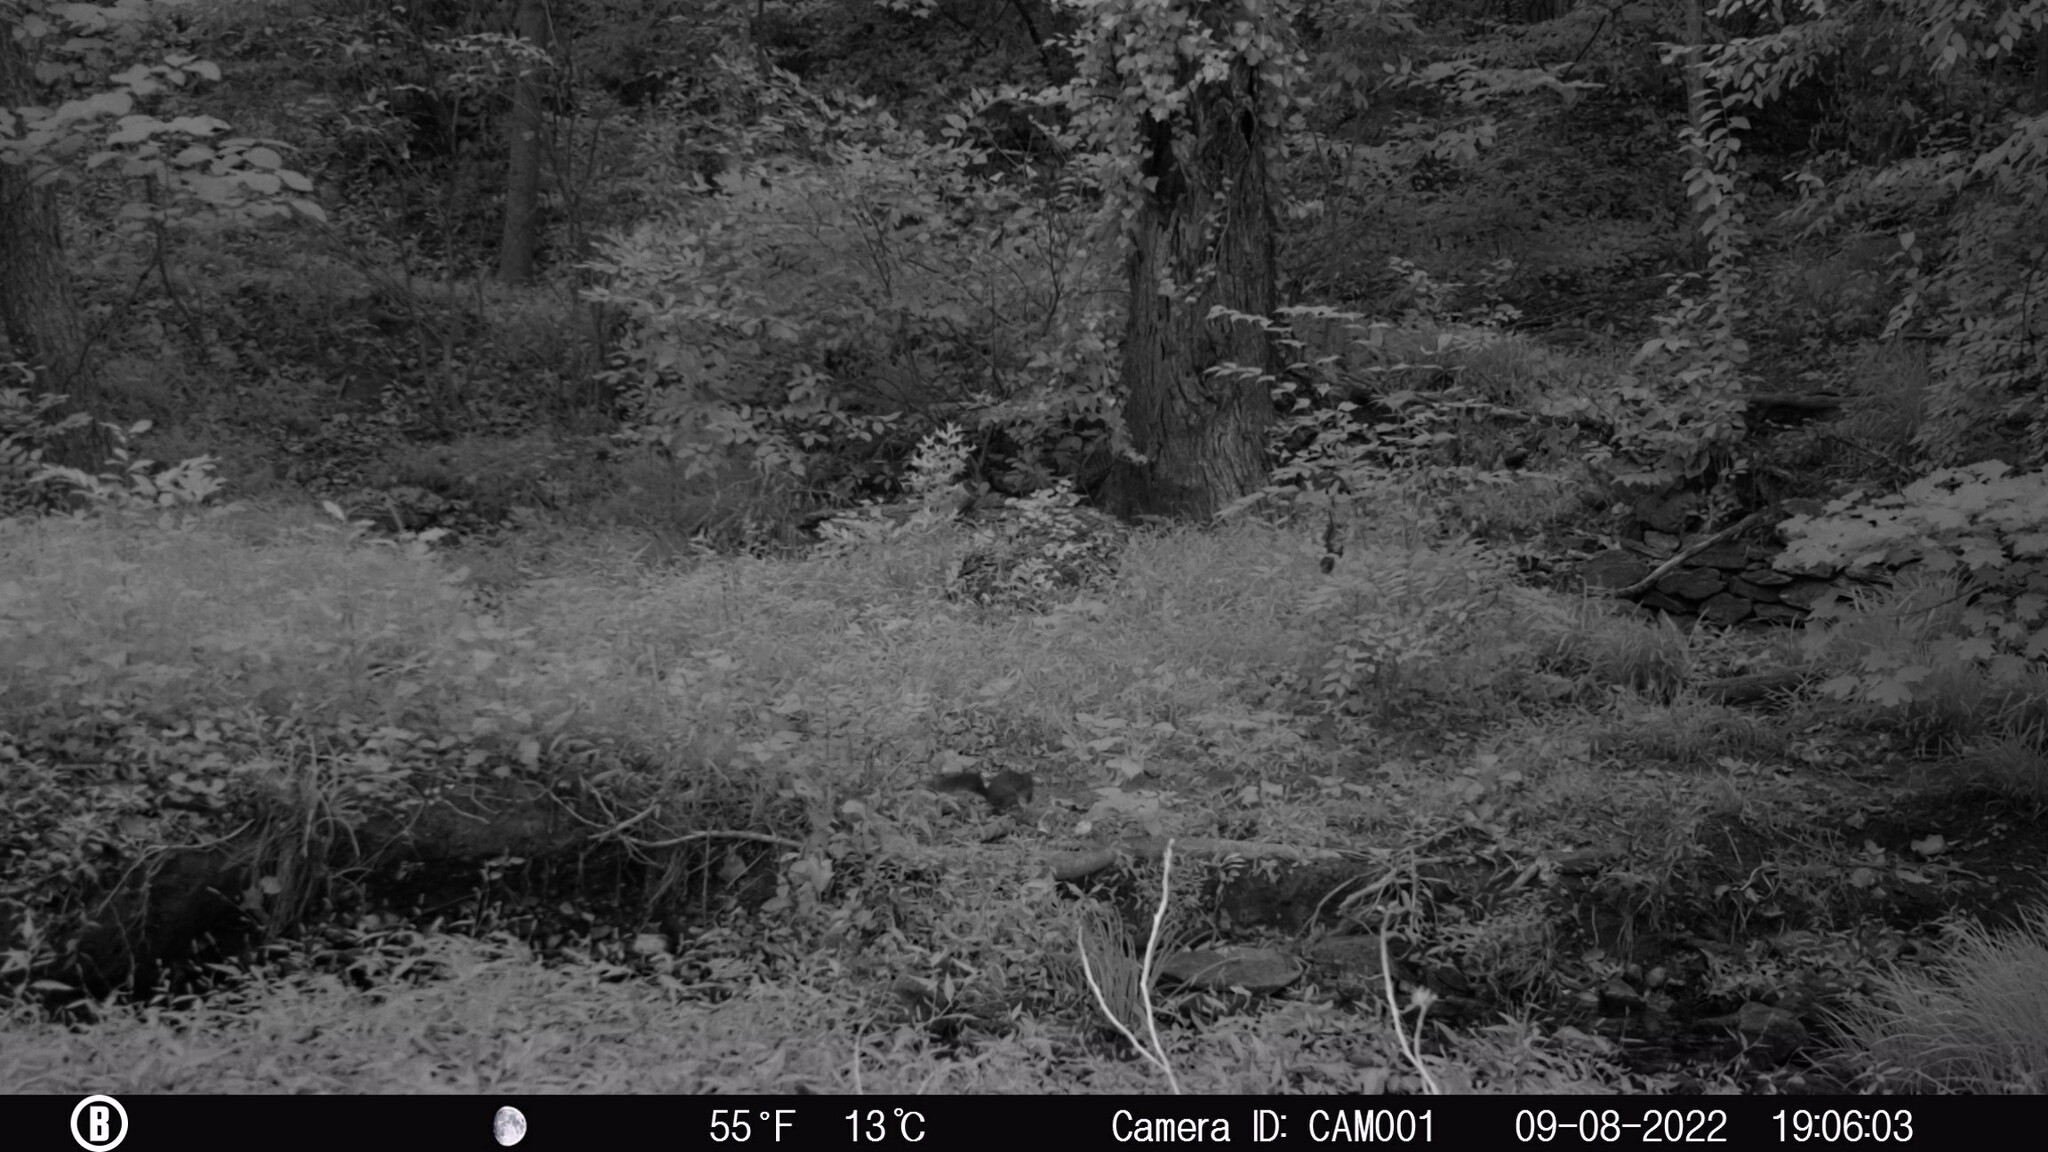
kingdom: Animalia
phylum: Chordata
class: Mammalia
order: Rodentia
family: Sciuridae
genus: Sciurus
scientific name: Sciurus carolinensis
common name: Eastern gray squirrel
